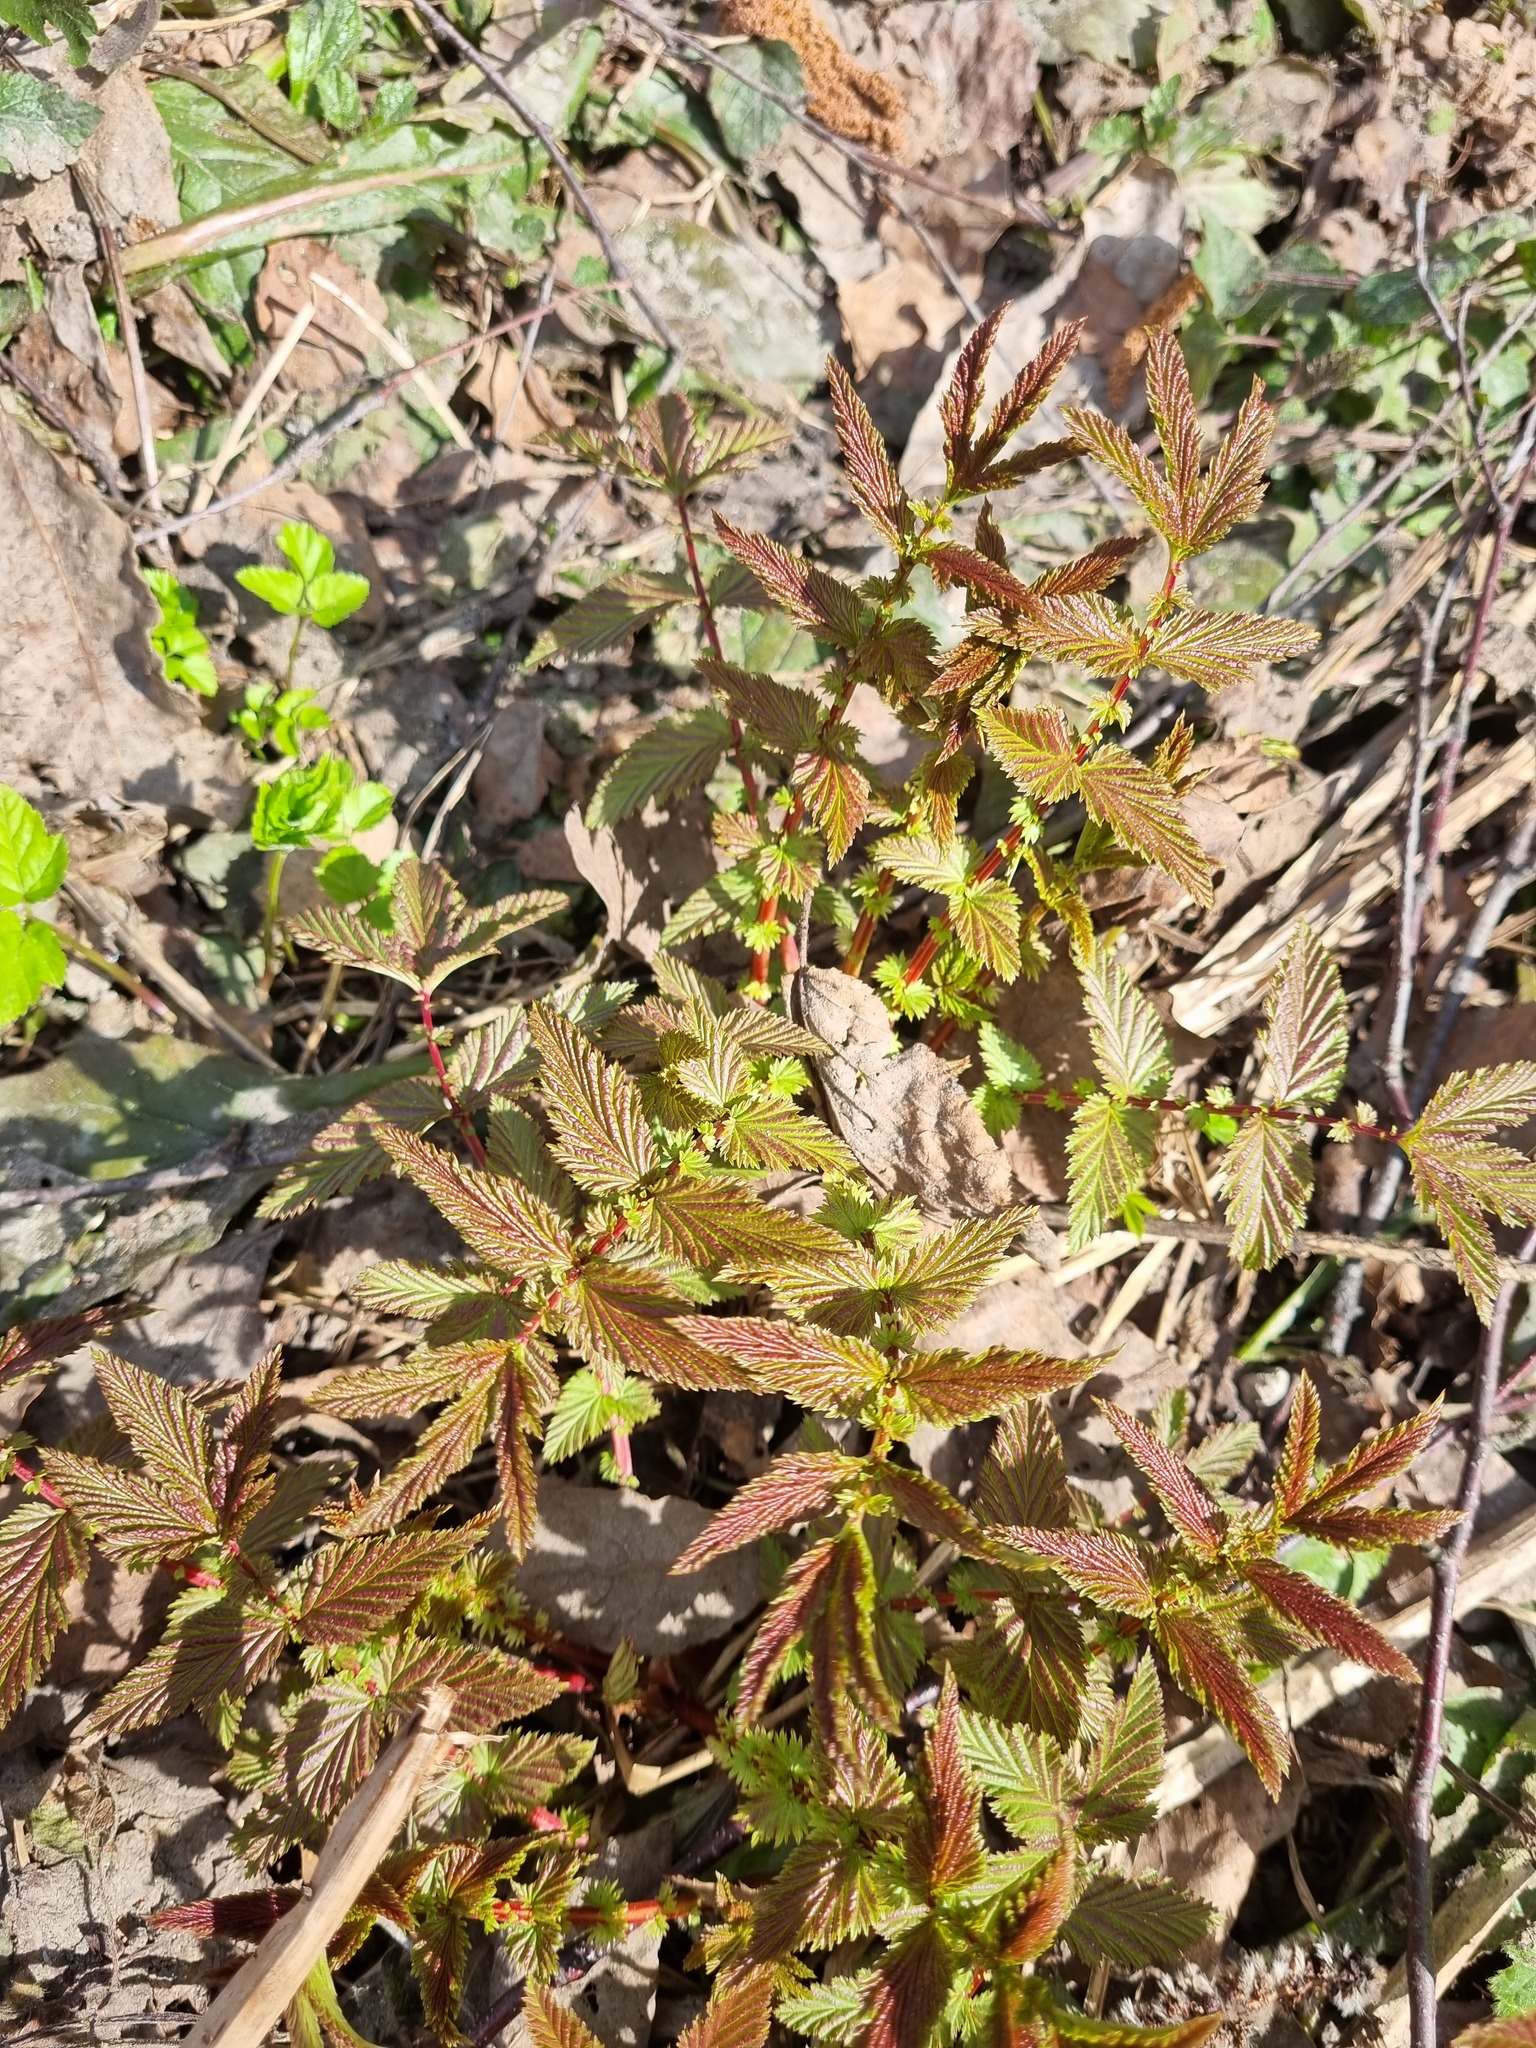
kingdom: Plantae
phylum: Tracheophyta
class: Magnoliopsida
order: Rosales
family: Rosaceae
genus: Filipendula
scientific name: Filipendula ulmaria
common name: Meadowsweet
